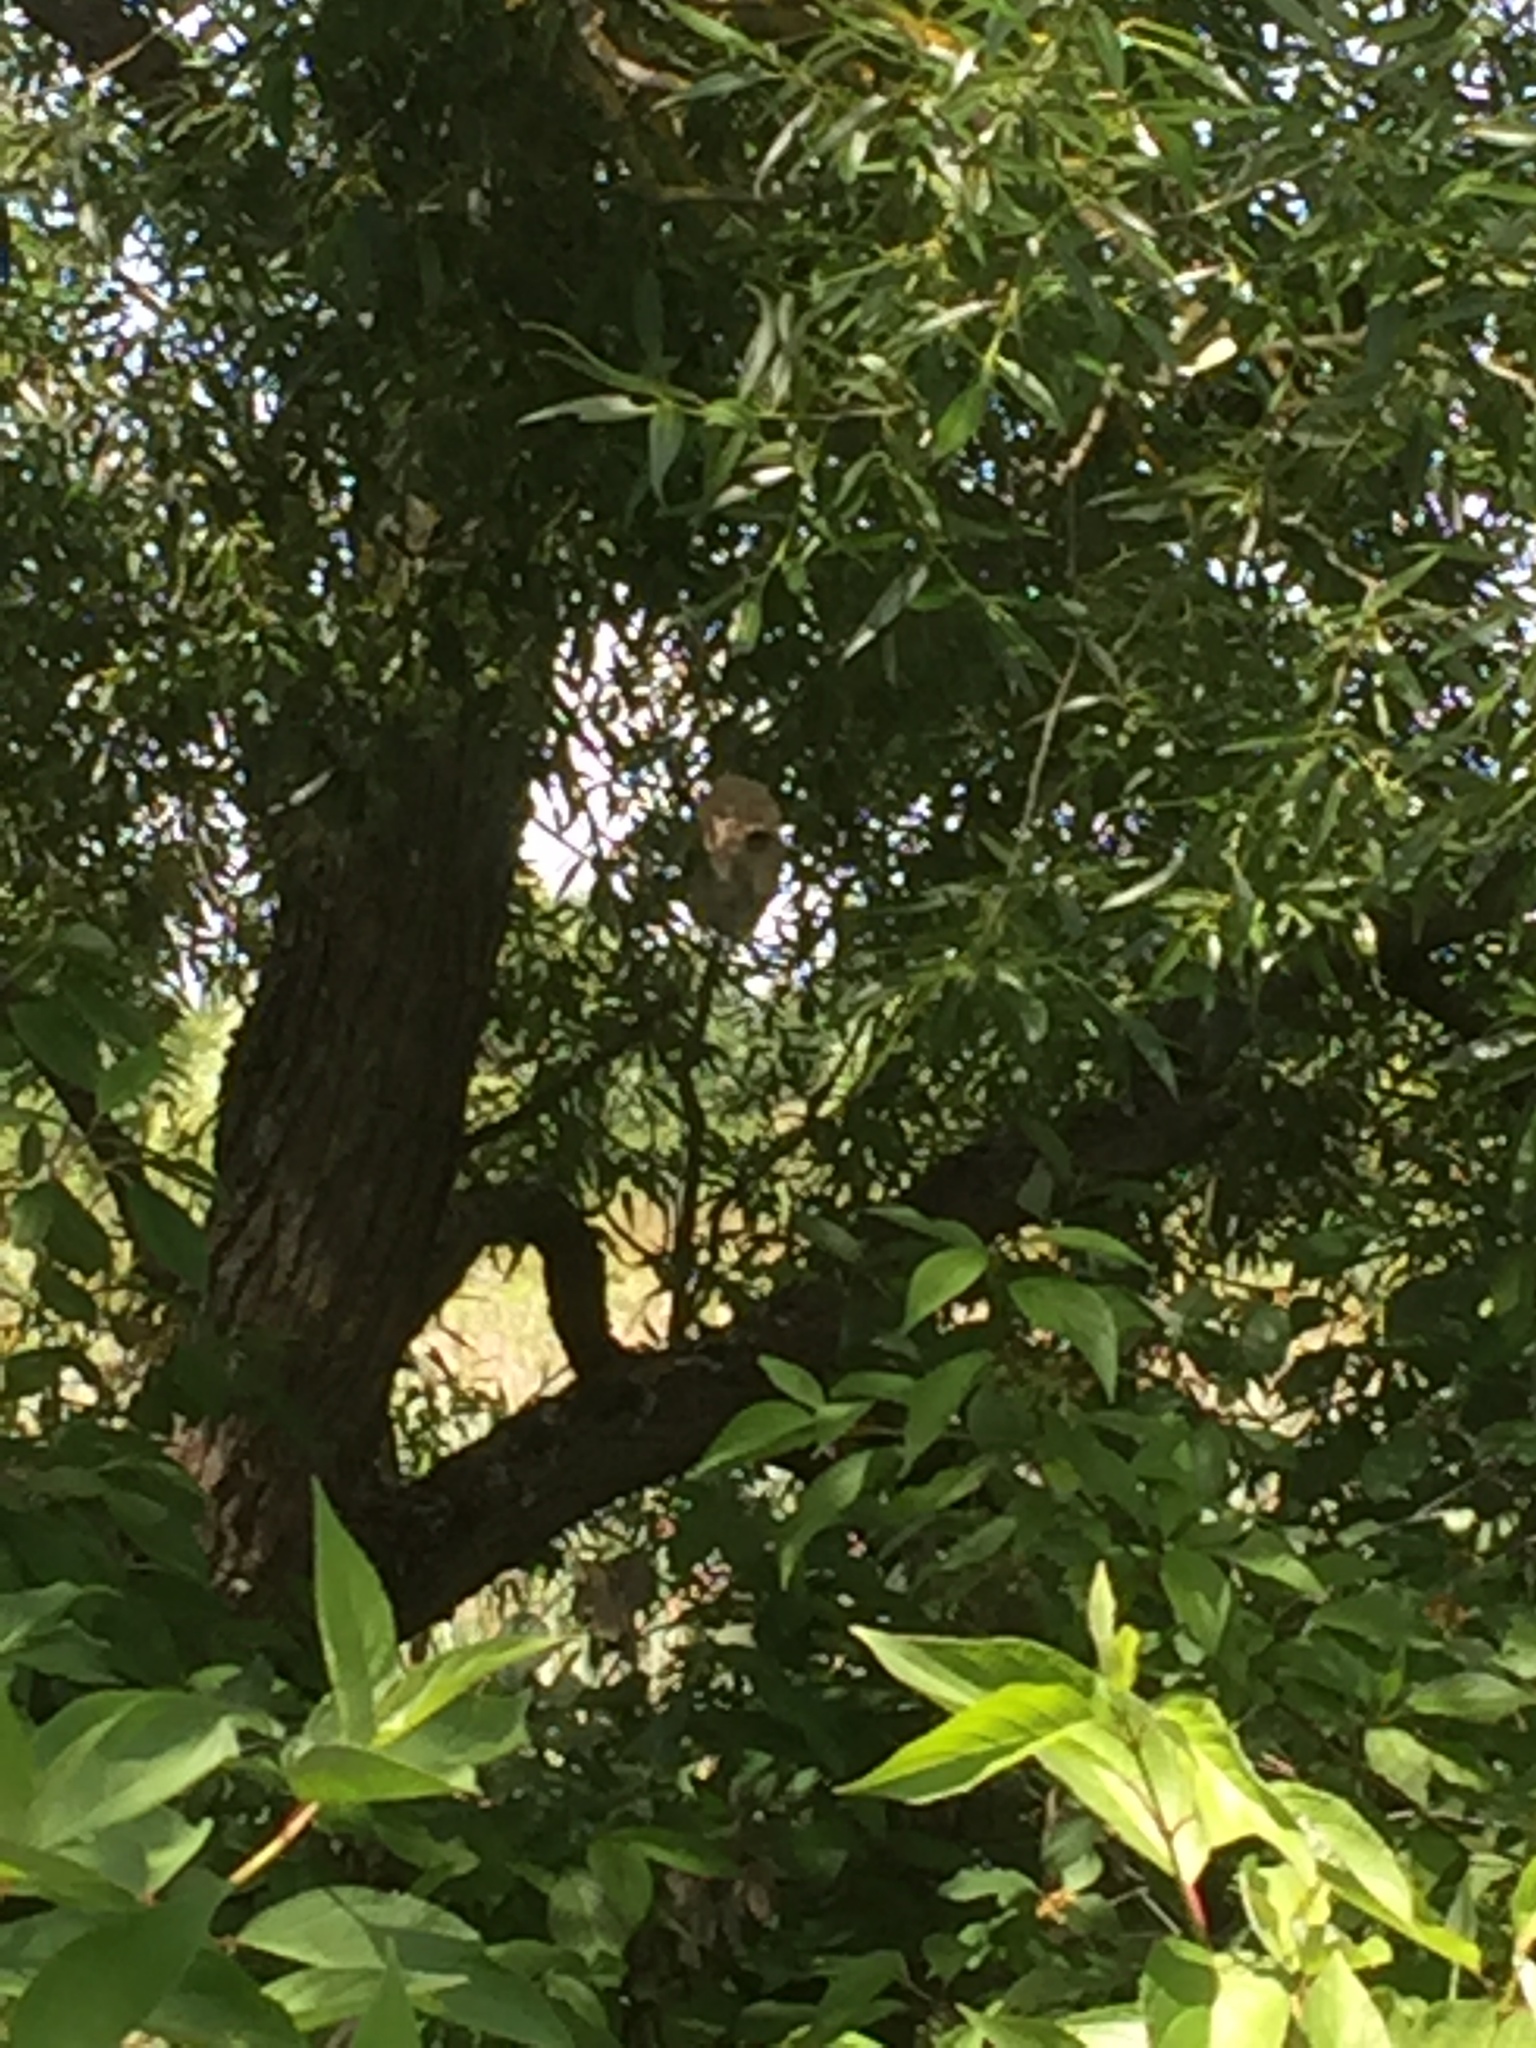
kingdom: Animalia
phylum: Chordata
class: Aves
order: Passeriformes
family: Remizidae
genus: Remiz
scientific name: Remiz pendulinus
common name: Eurasian penduline tit
